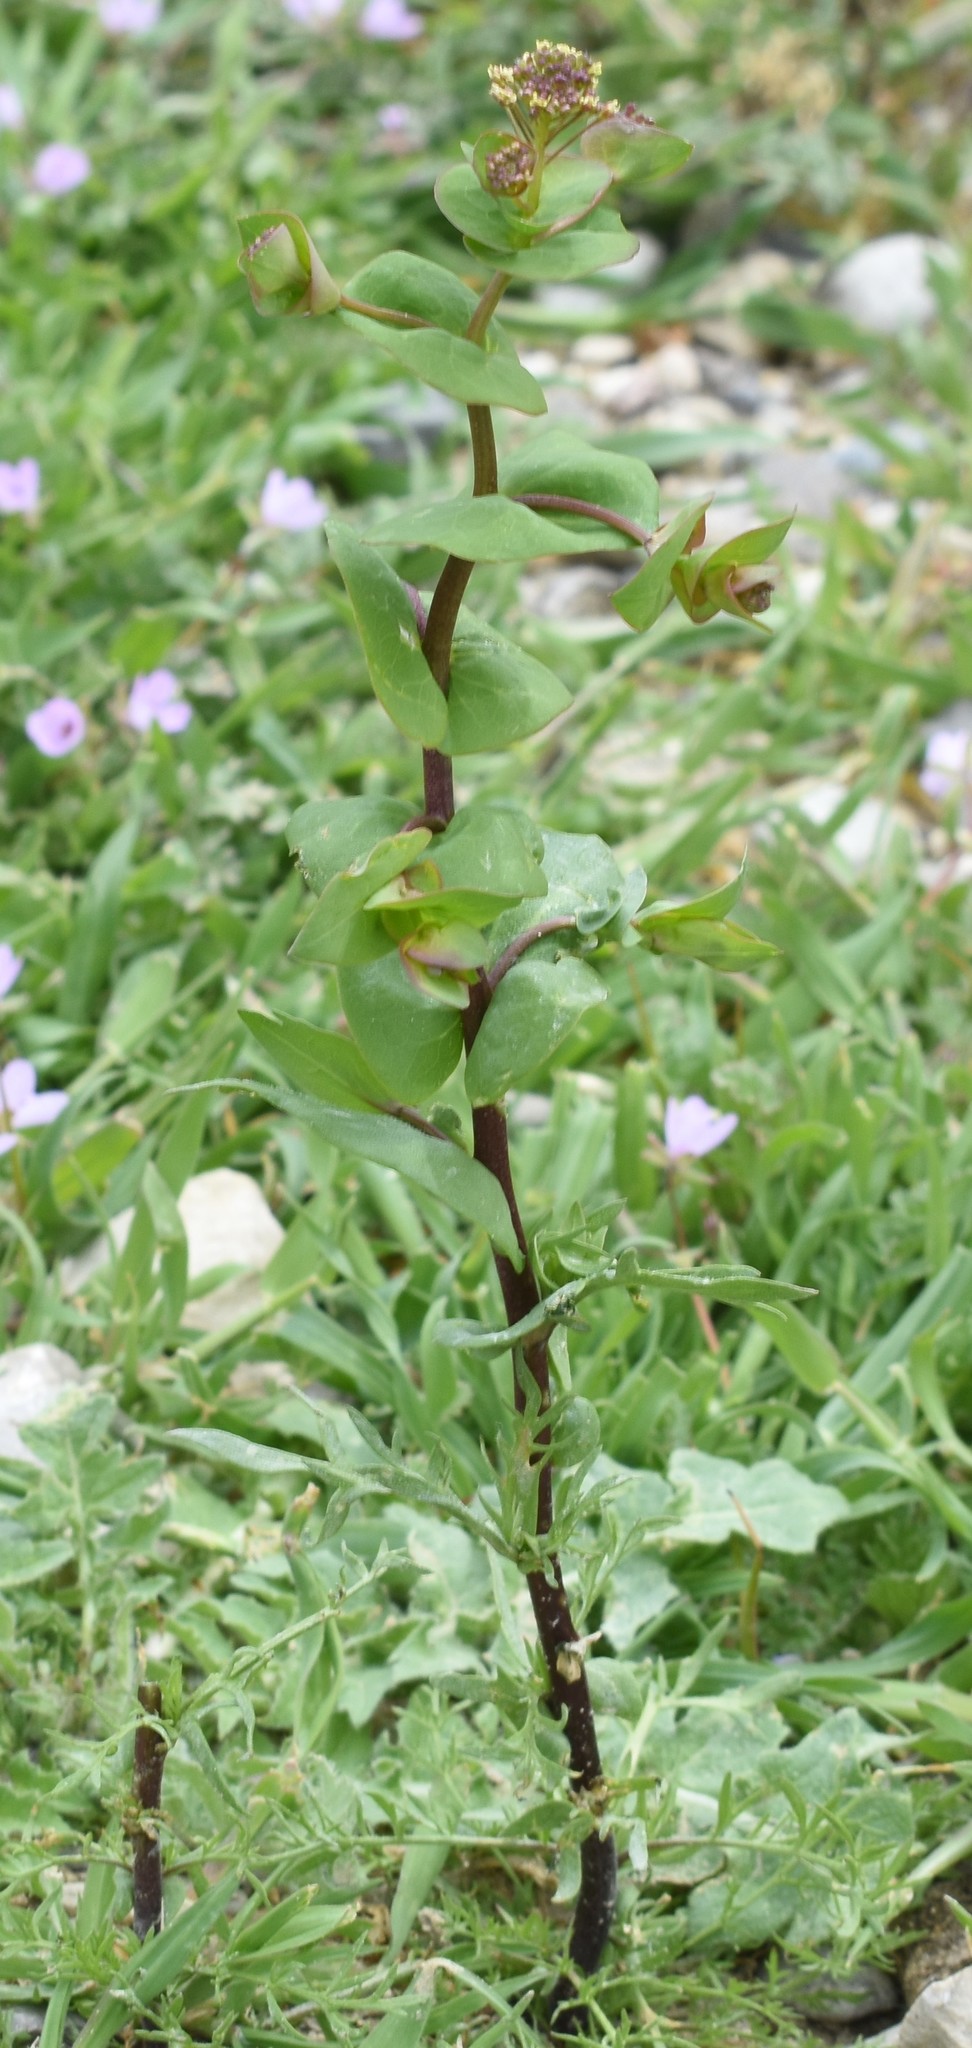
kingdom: Plantae
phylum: Tracheophyta
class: Magnoliopsida
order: Brassicales
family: Brassicaceae
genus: Lepidium
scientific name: Lepidium perfoliatum
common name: Perfoliate pepperwort
